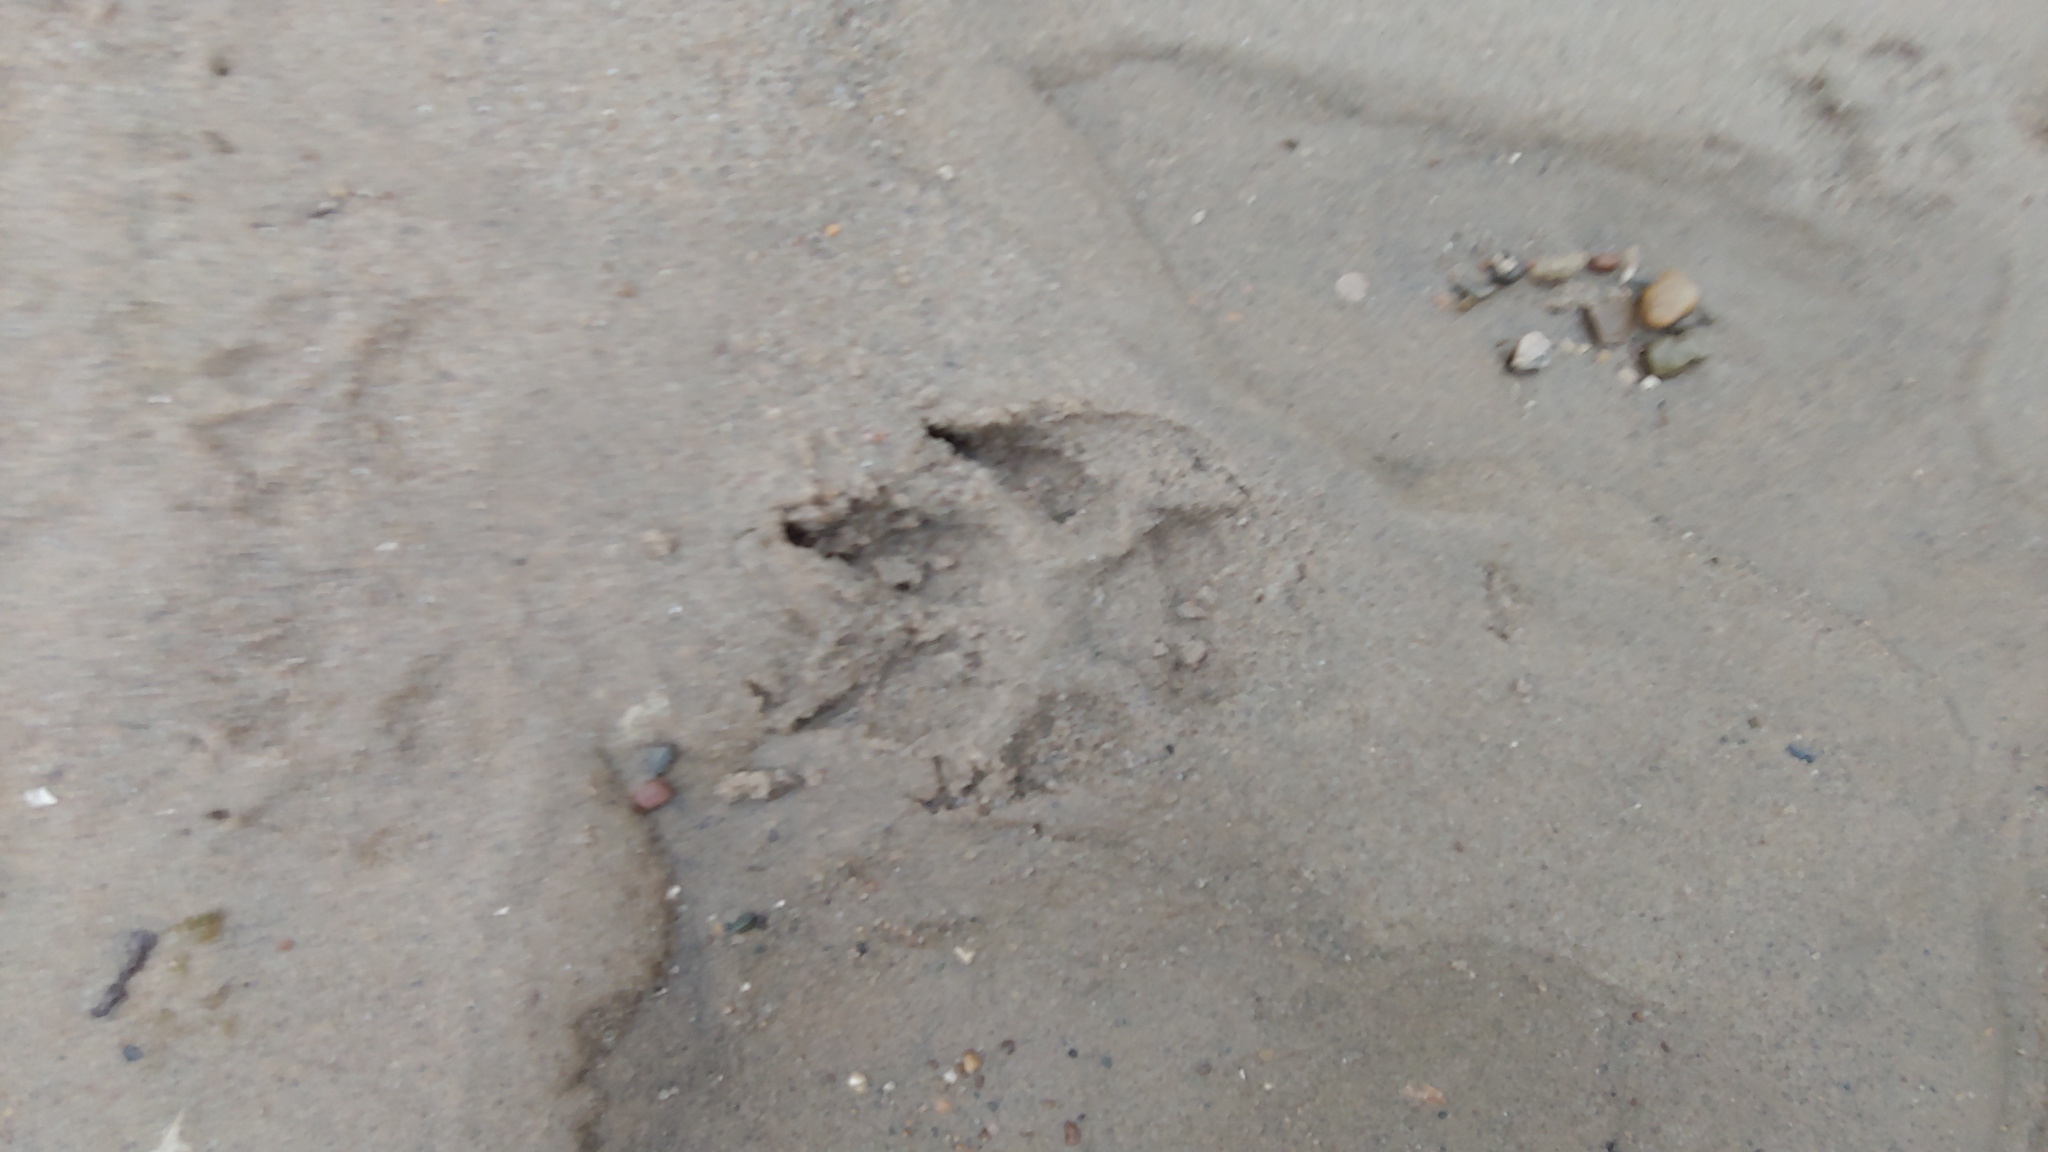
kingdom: Animalia
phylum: Chordata
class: Mammalia
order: Carnivora
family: Canidae
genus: Canis
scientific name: Canis latrans
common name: Coyote
